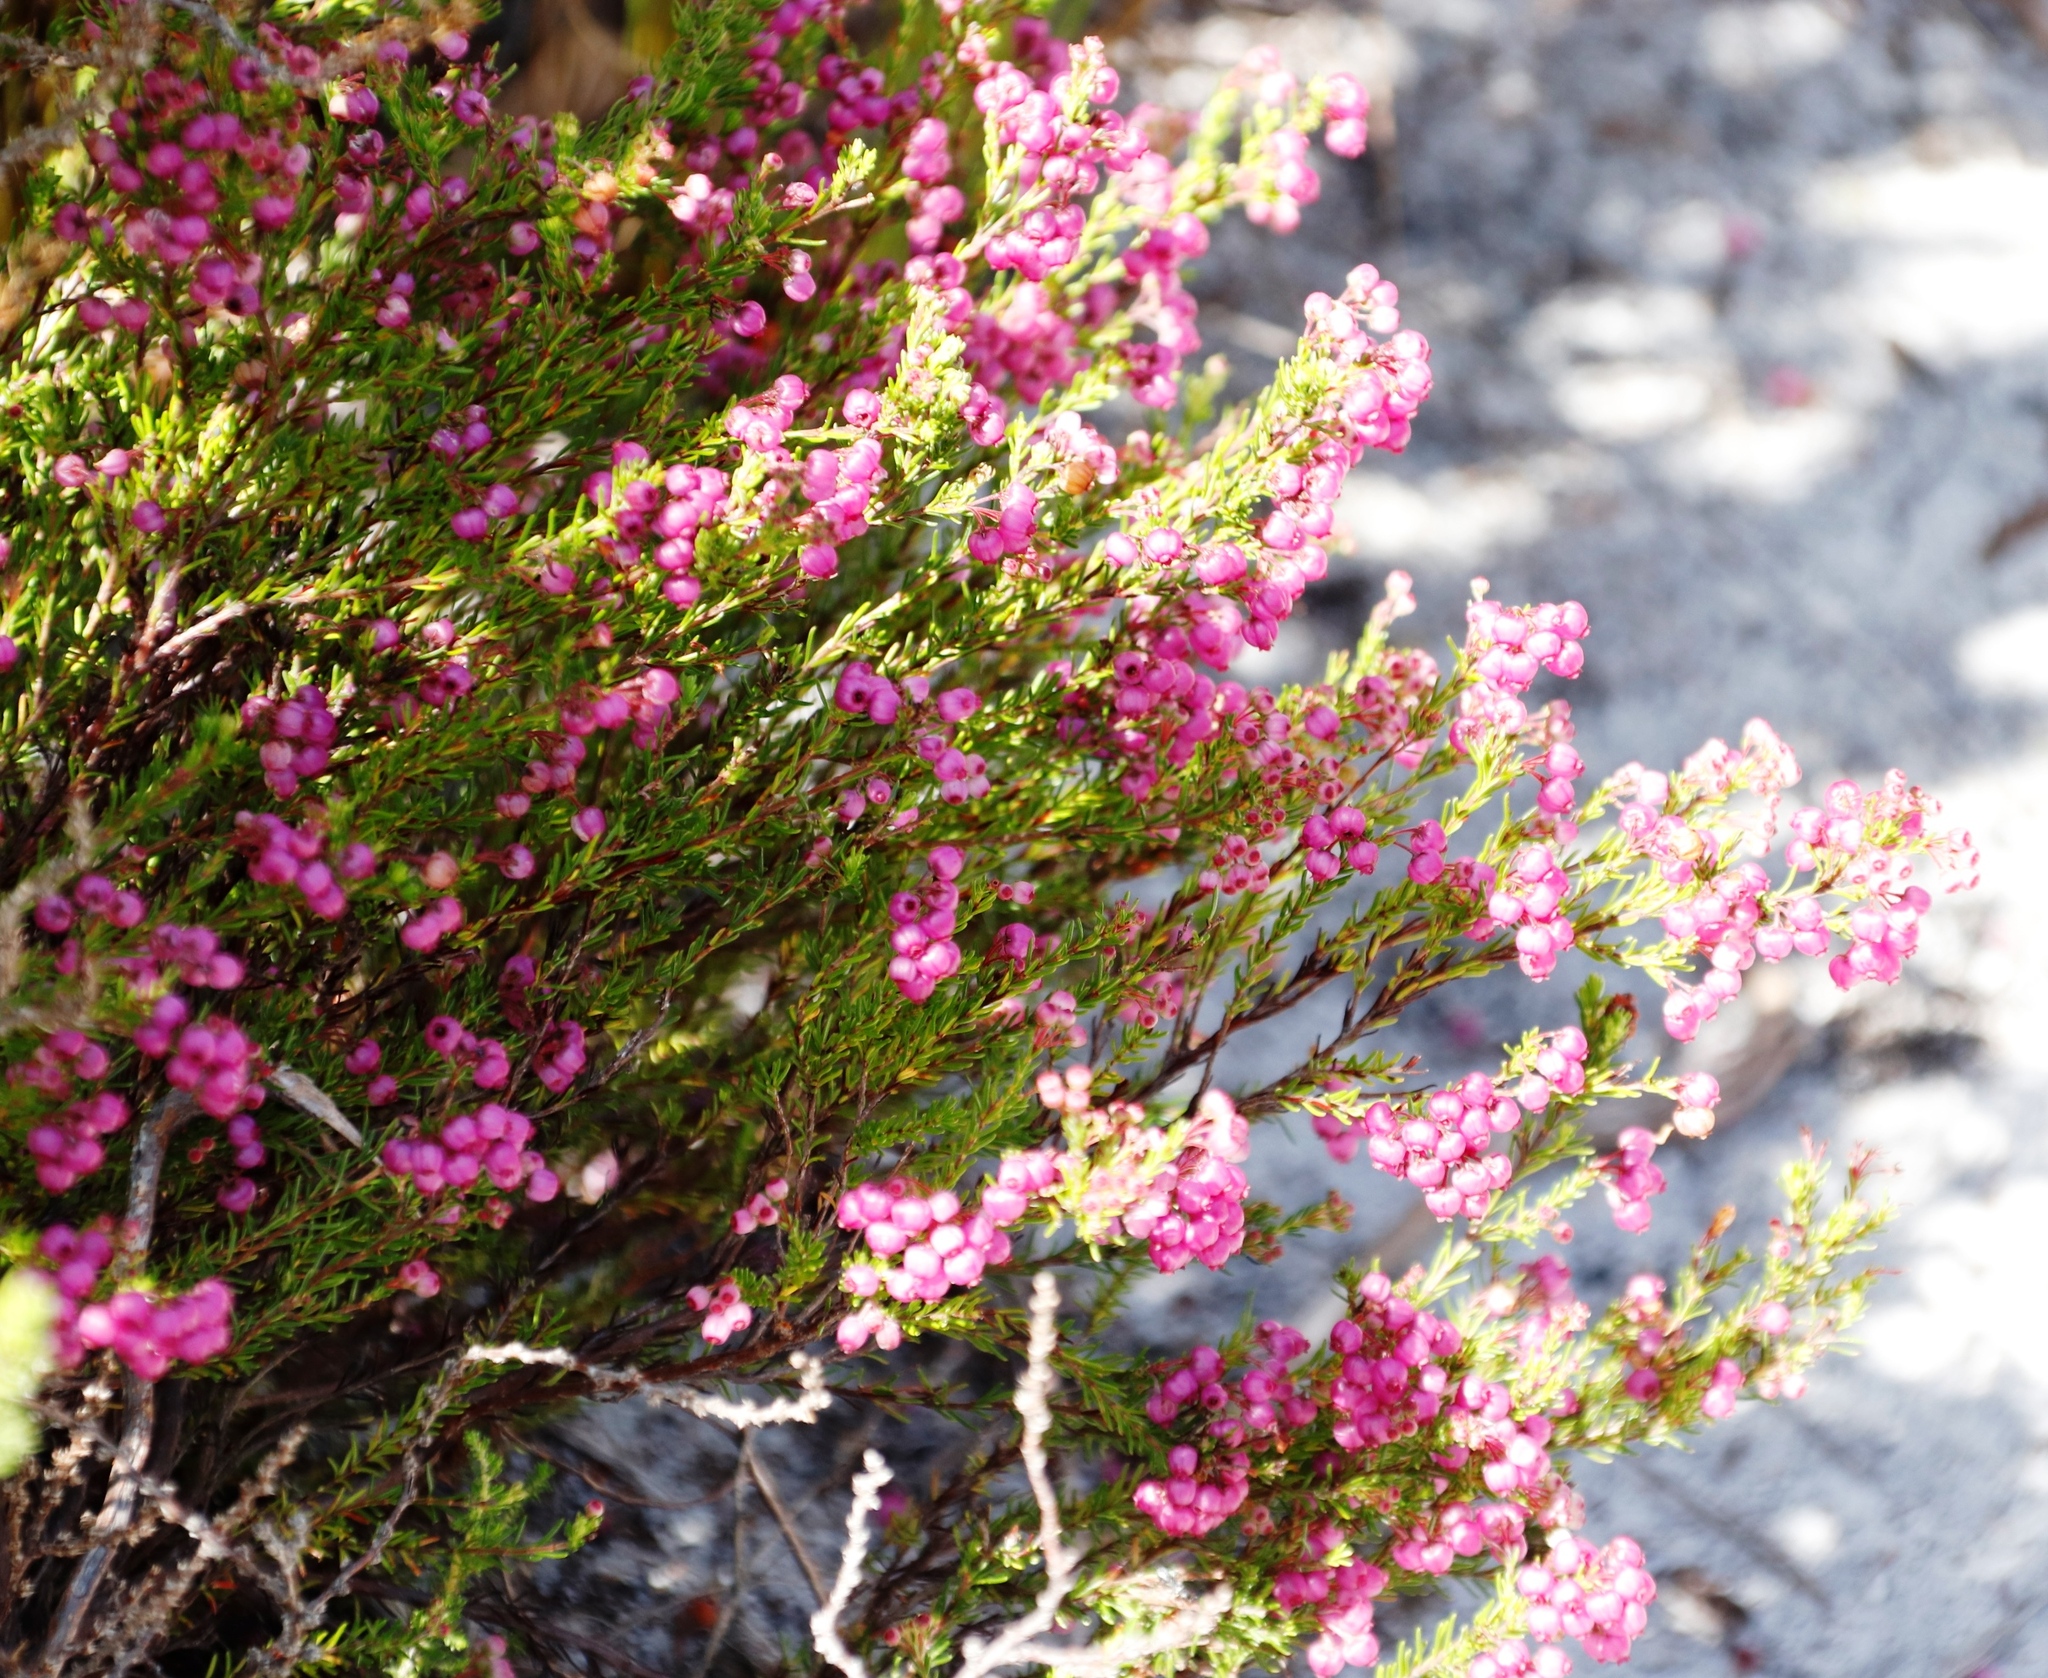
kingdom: Plantae
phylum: Tracheophyta
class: Magnoliopsida
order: Ericales
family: Ericaceae
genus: Erica
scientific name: Erica multumbellifera
